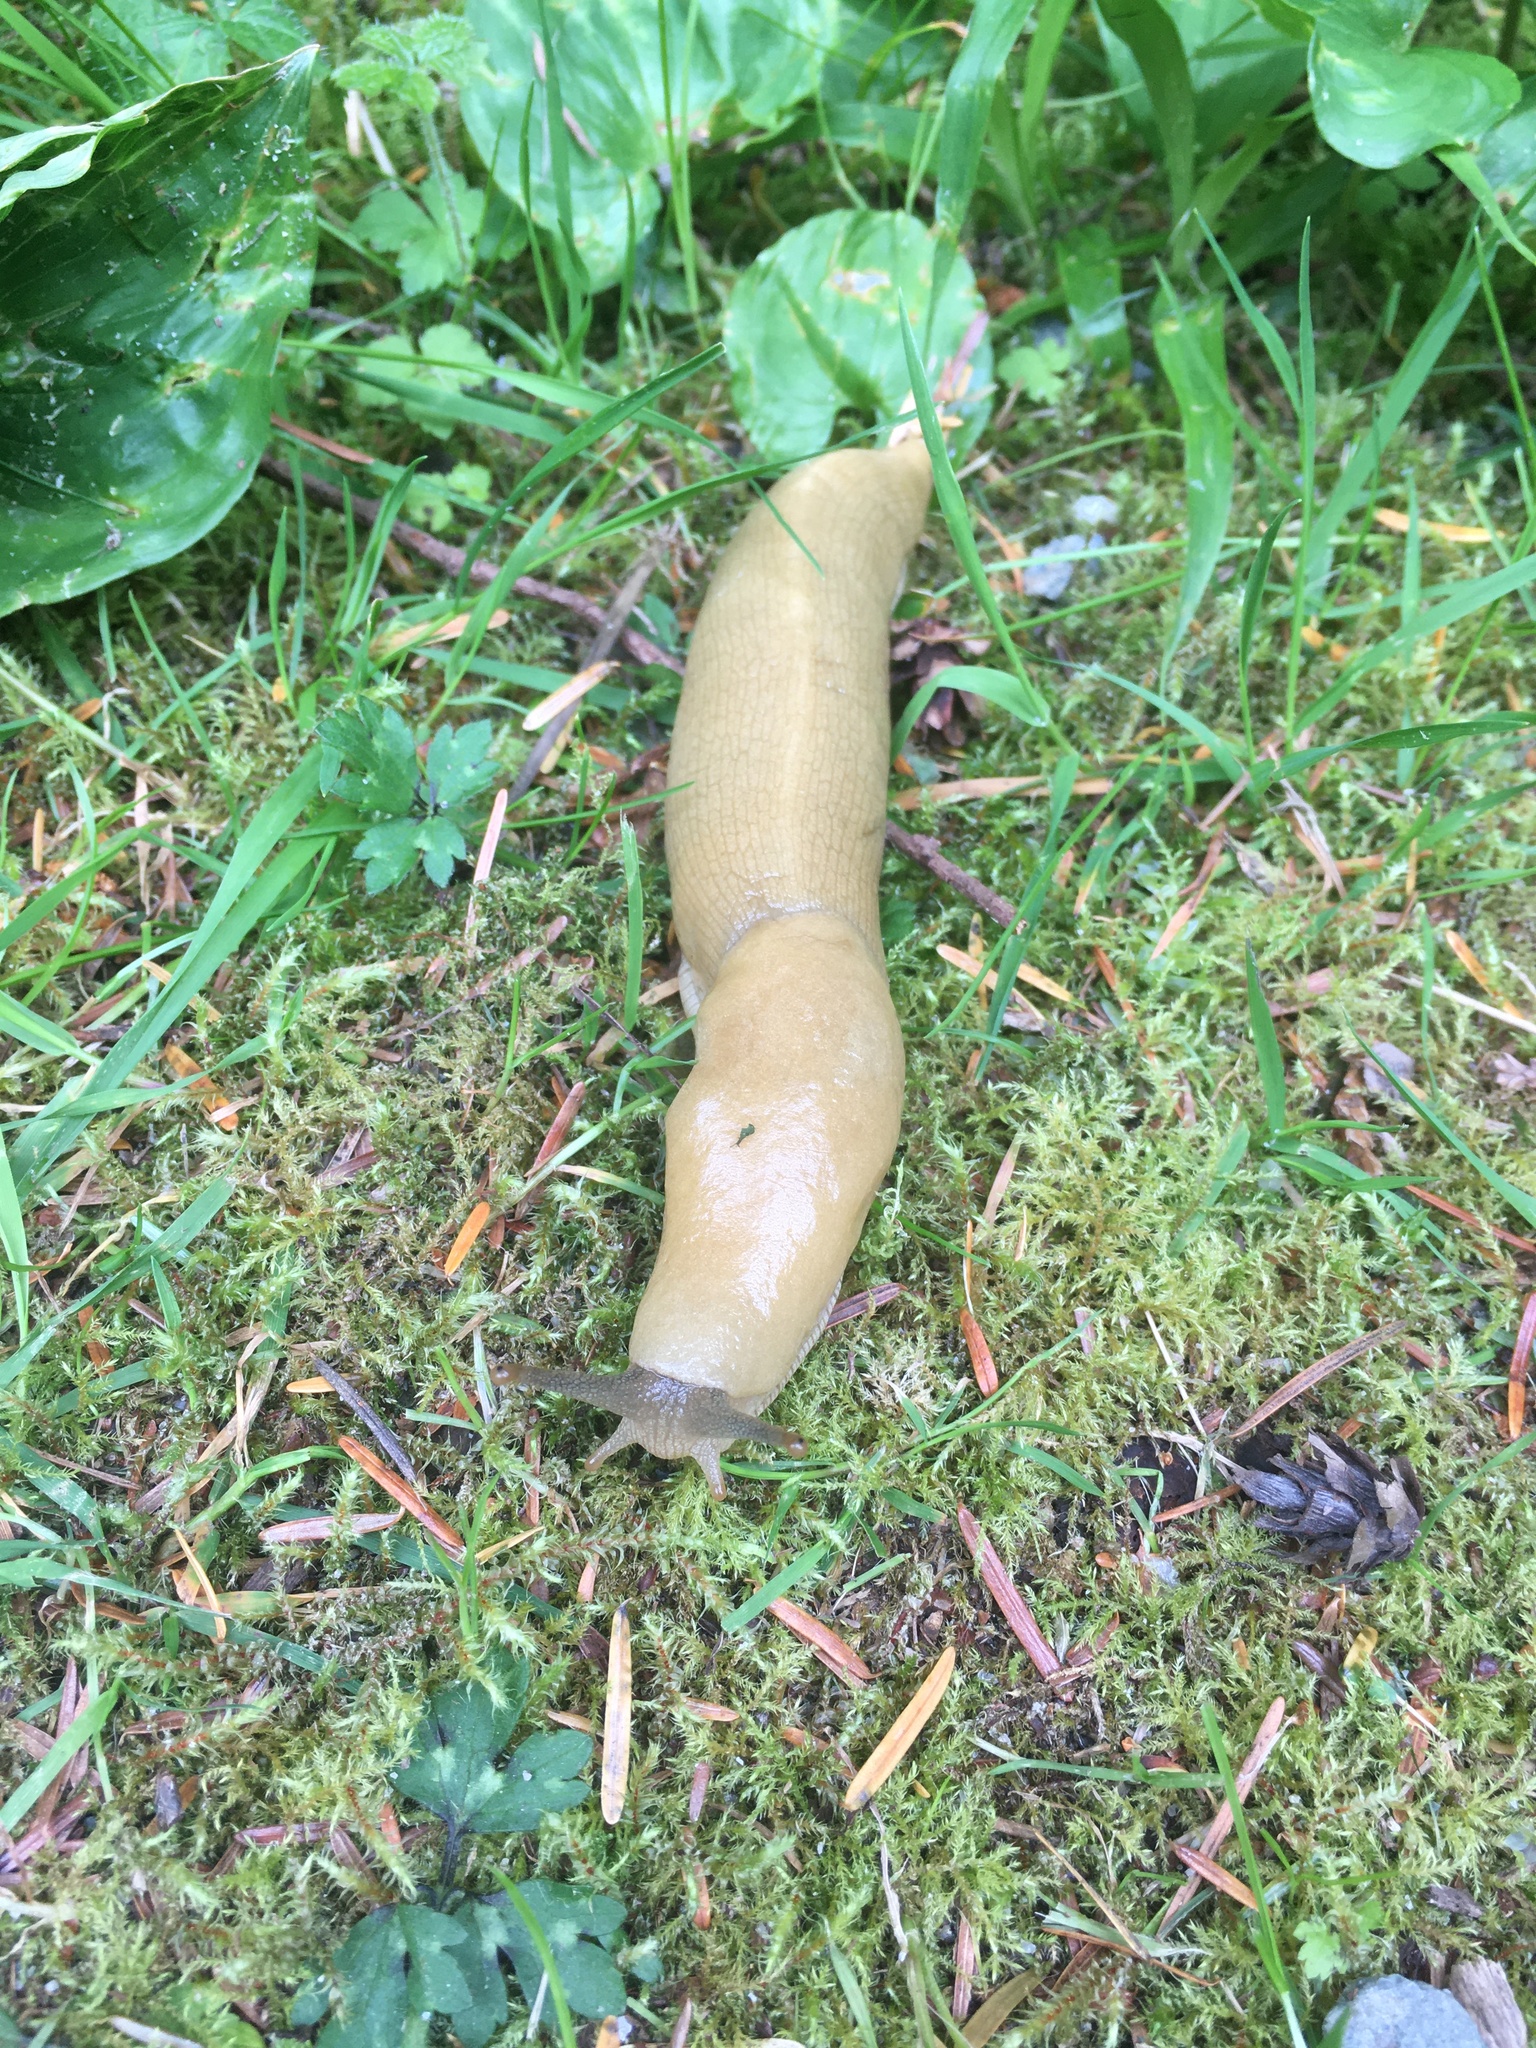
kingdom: Animalia
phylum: Mollusca
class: Gastropoda
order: Stylommatophora
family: Ariolimacidae
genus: Ariolimax
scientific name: Ariolimax columbianus
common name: Pacific banana slug
